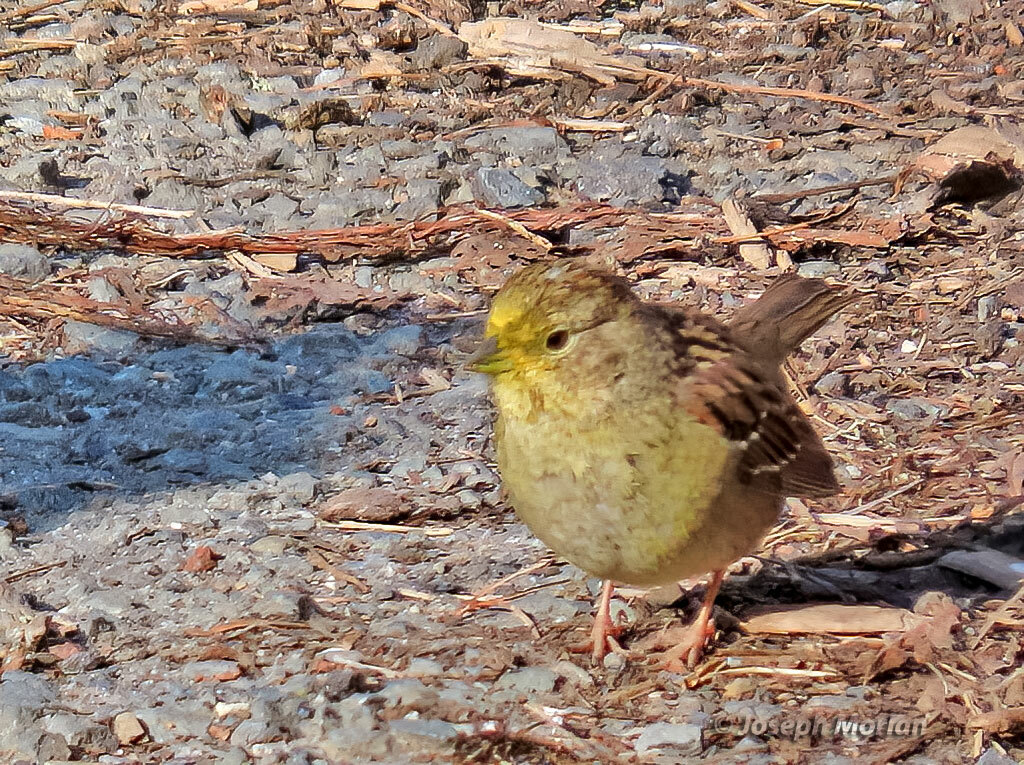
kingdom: Animalia
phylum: Chordata
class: Aves
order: Passeriformes
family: Passerellidae
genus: Zonotrichia
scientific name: Zonotrichia atricapilla
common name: Golden-crowned sparrow
